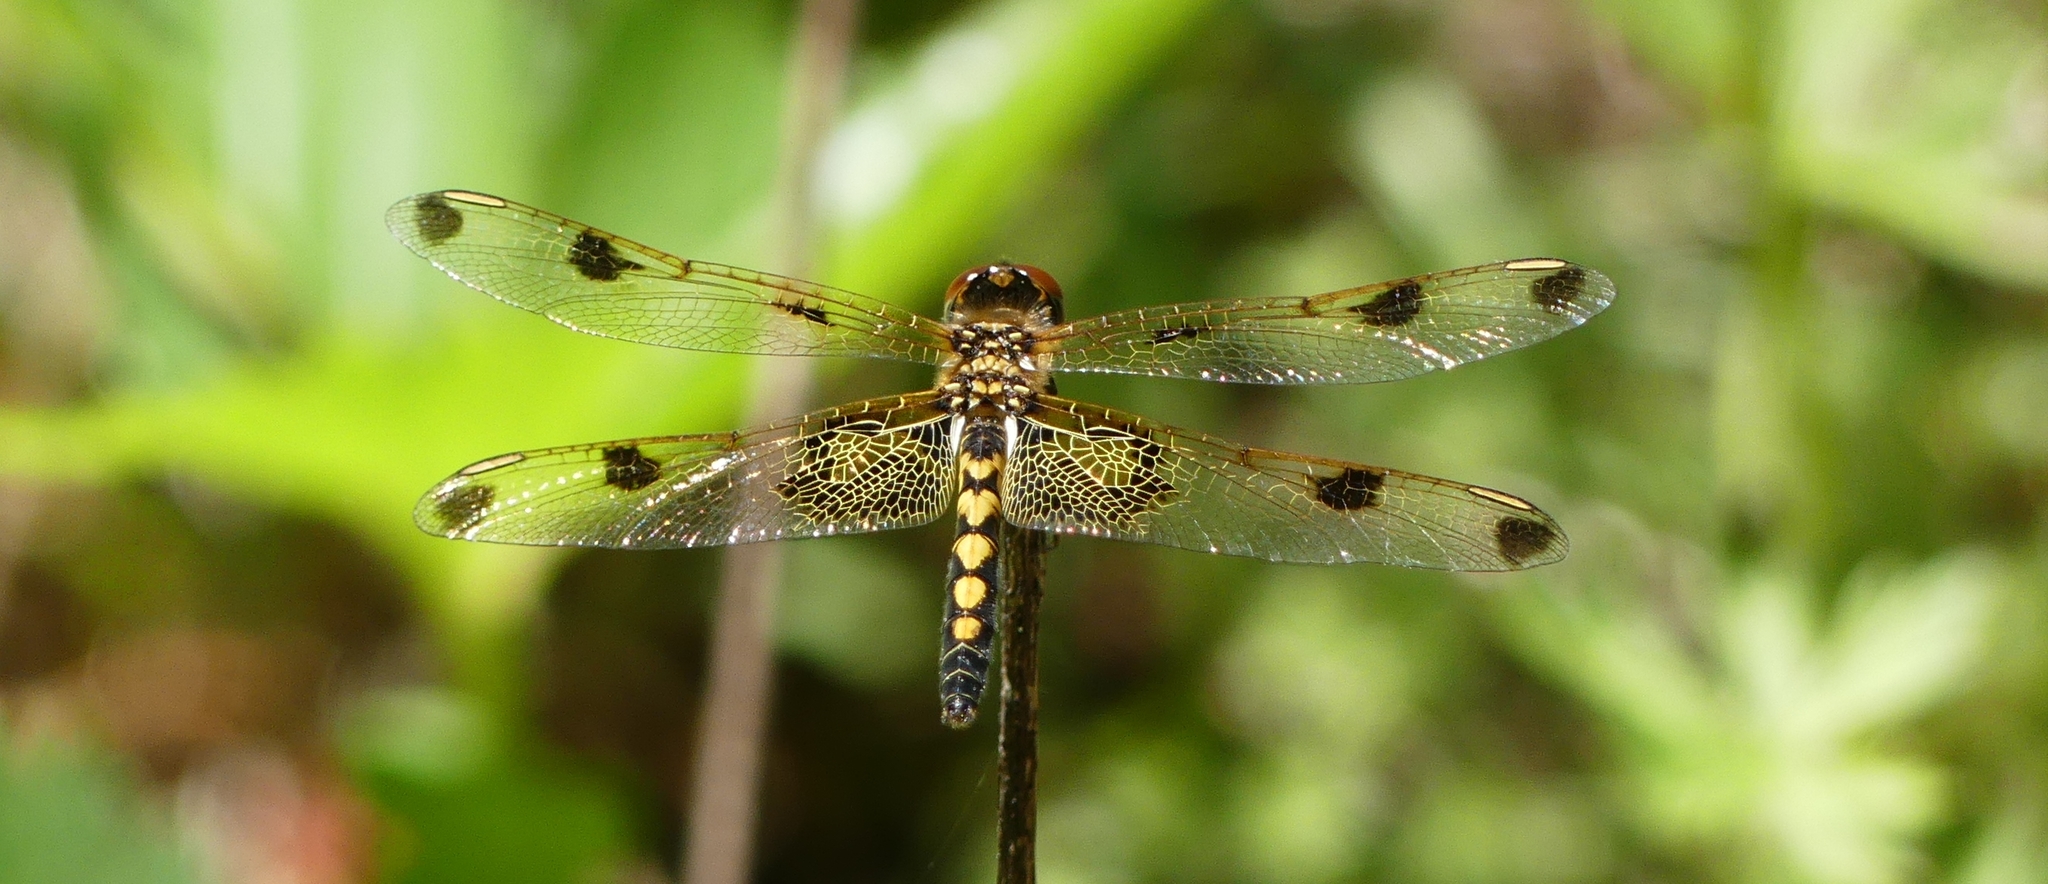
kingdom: Animalia
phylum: Arthropoda
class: Insecta
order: Odonata
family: Libellulidae
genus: Celithemis
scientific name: Celithemis elisa
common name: Calico pennant
